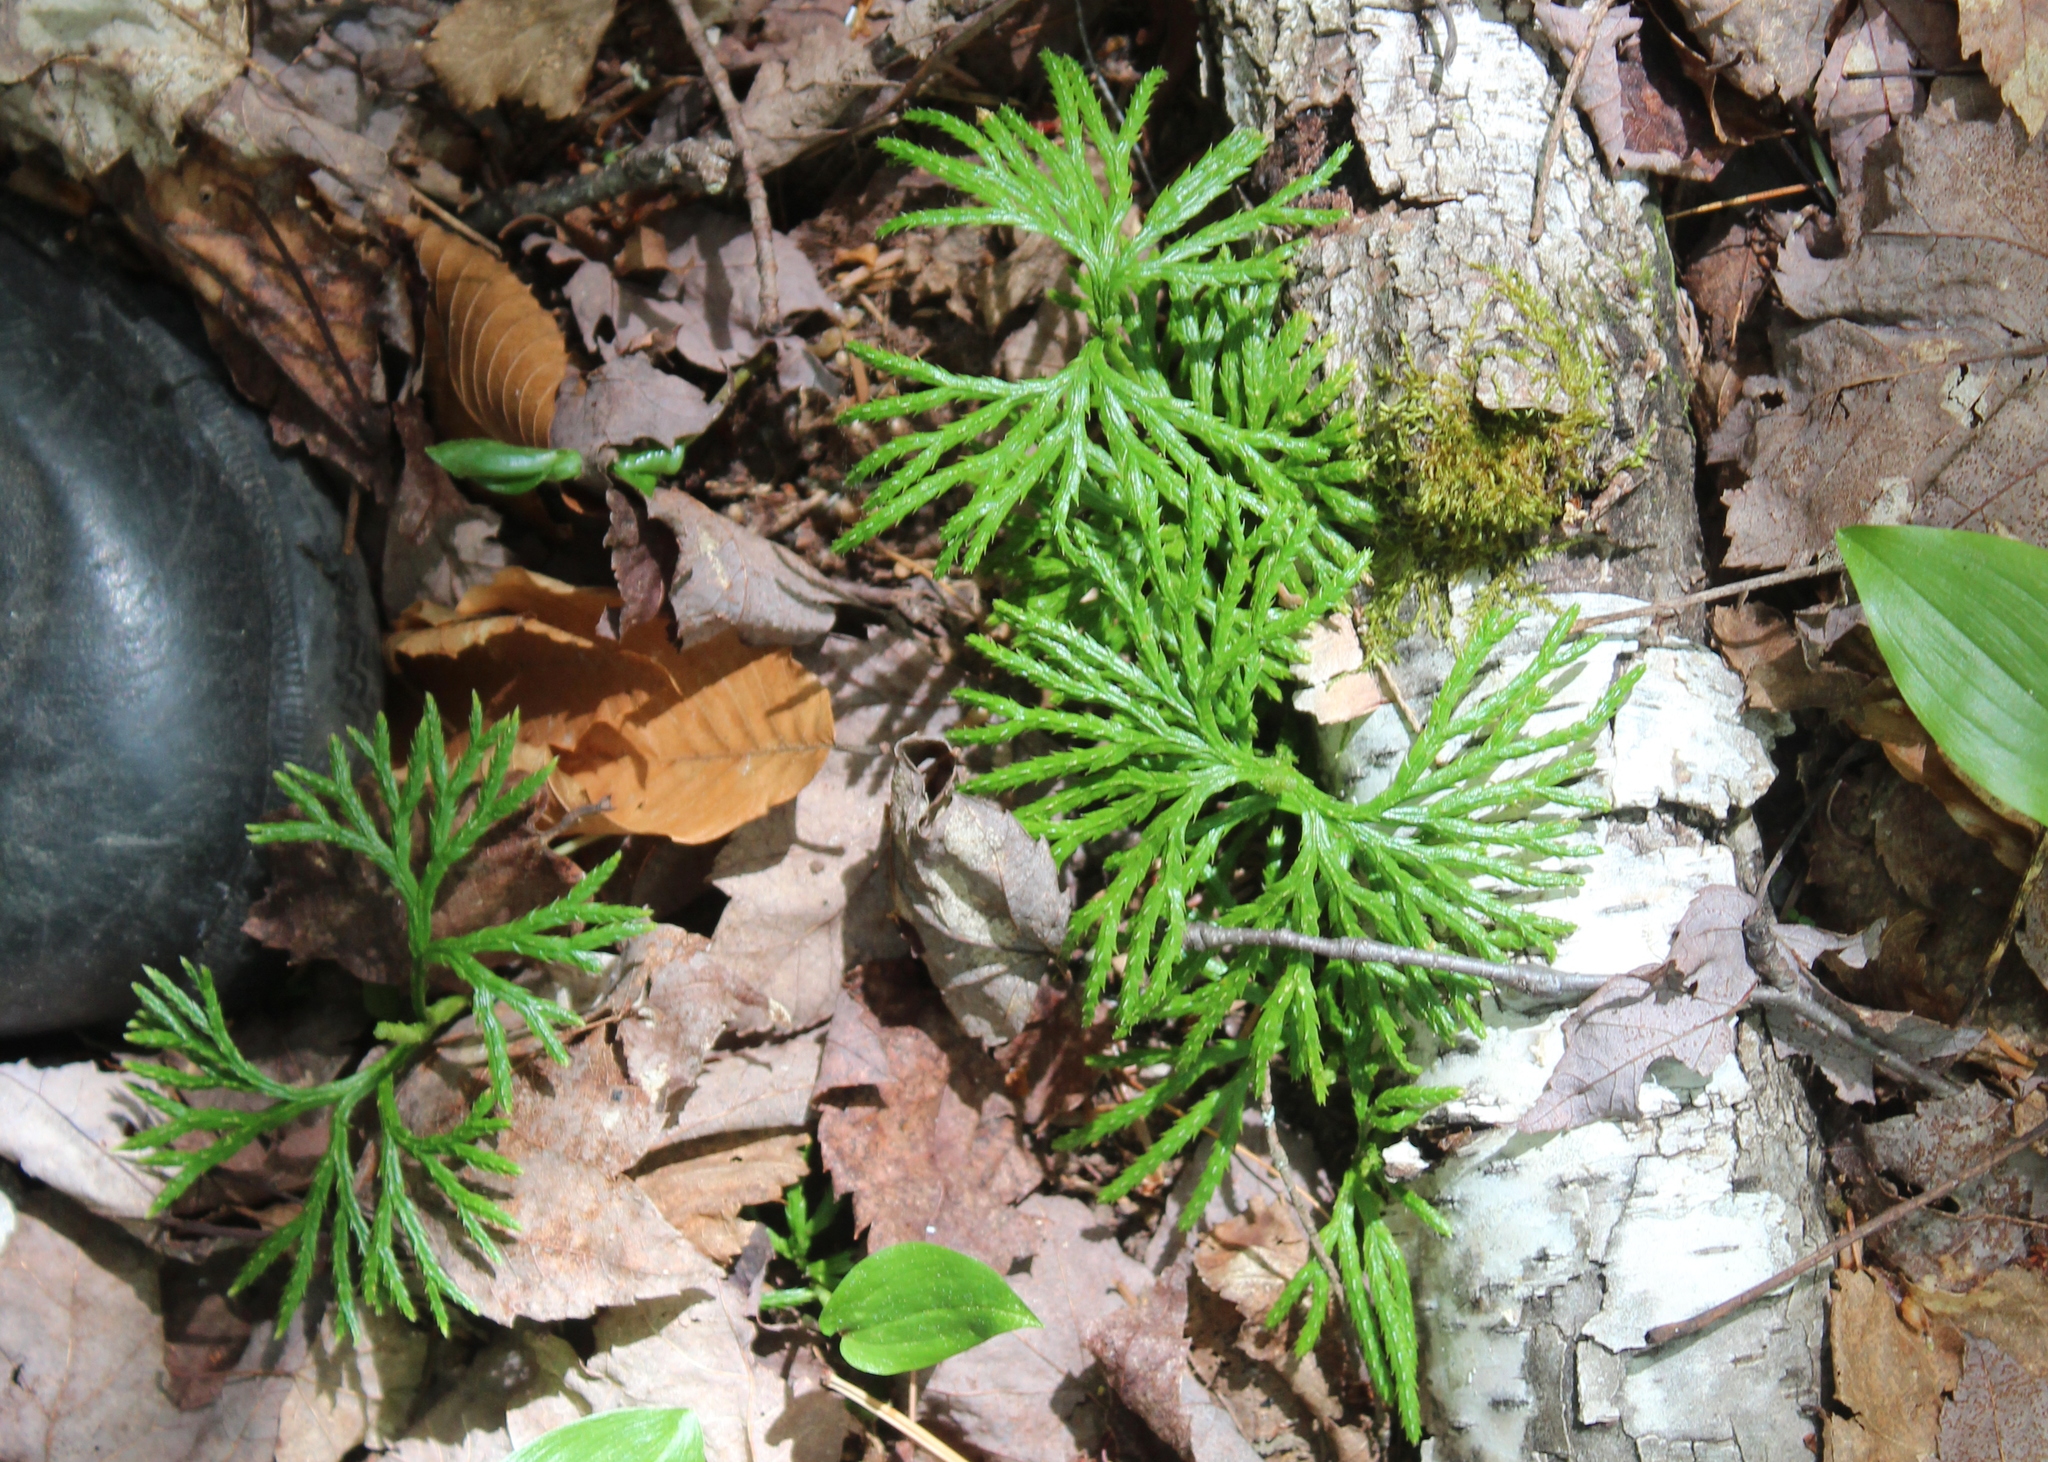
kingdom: Plantae
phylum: Tracheophyta
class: Lycopodiopsida
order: Lycopodiales
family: Lycopodiaceae
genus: Diphasiastrum
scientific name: Diphasiastrum digitatum
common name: Southern running-pine
